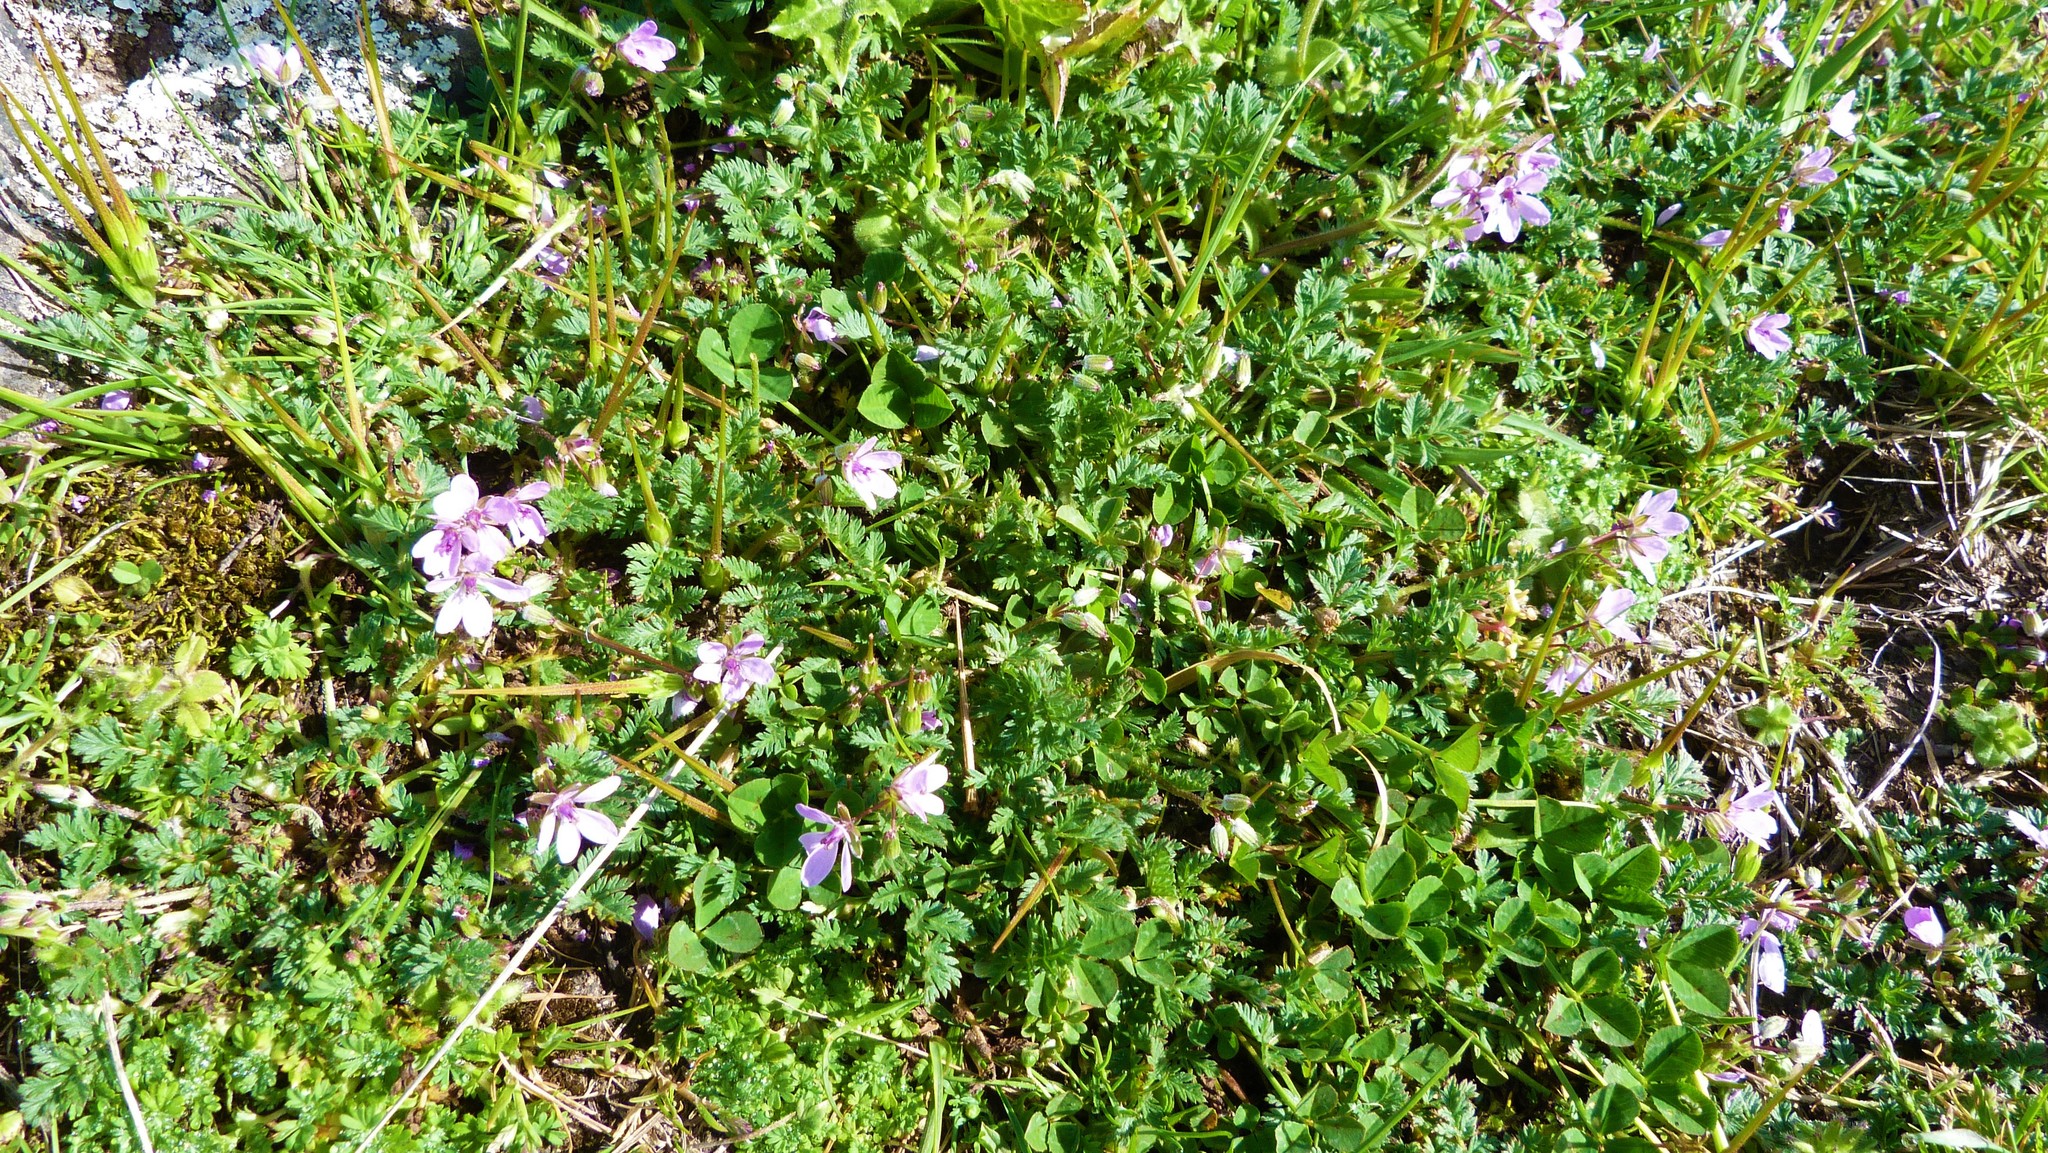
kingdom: Plantae
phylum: Tracheophyta
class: Magnoliopsida
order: Geraniales
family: Geraniaceae
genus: Erodium
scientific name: Erodium cicutarium
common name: Common stork's-bill
